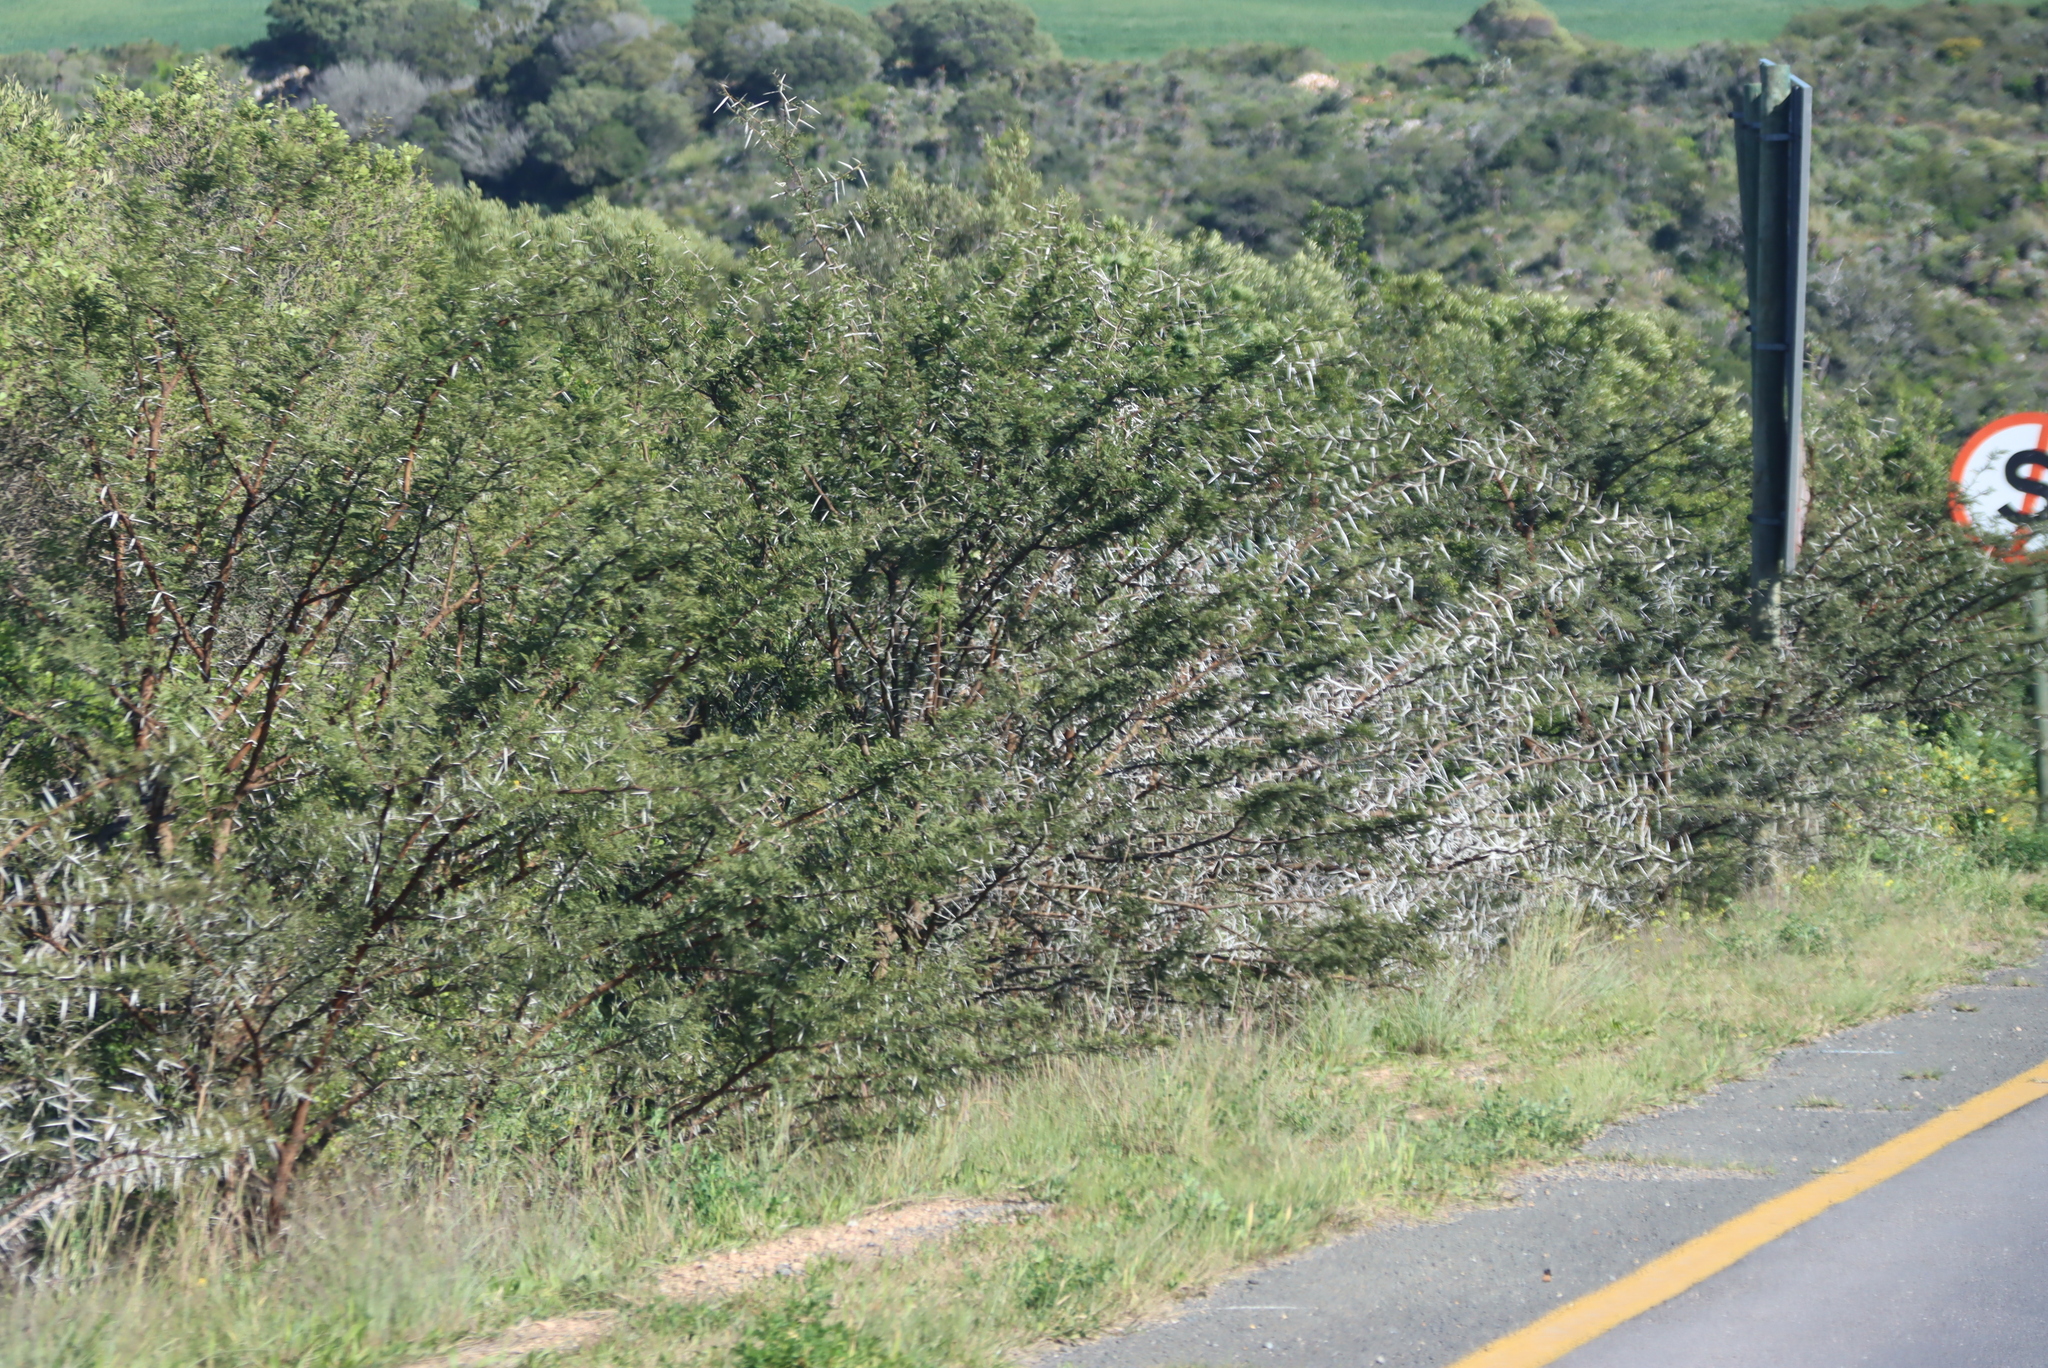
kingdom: Plantae
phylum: Tracheophyta
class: Magnoliopsida
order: Fabales
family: Fabaceae
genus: Vachellia
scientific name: Vachellia karroo
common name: Sweet thorn
